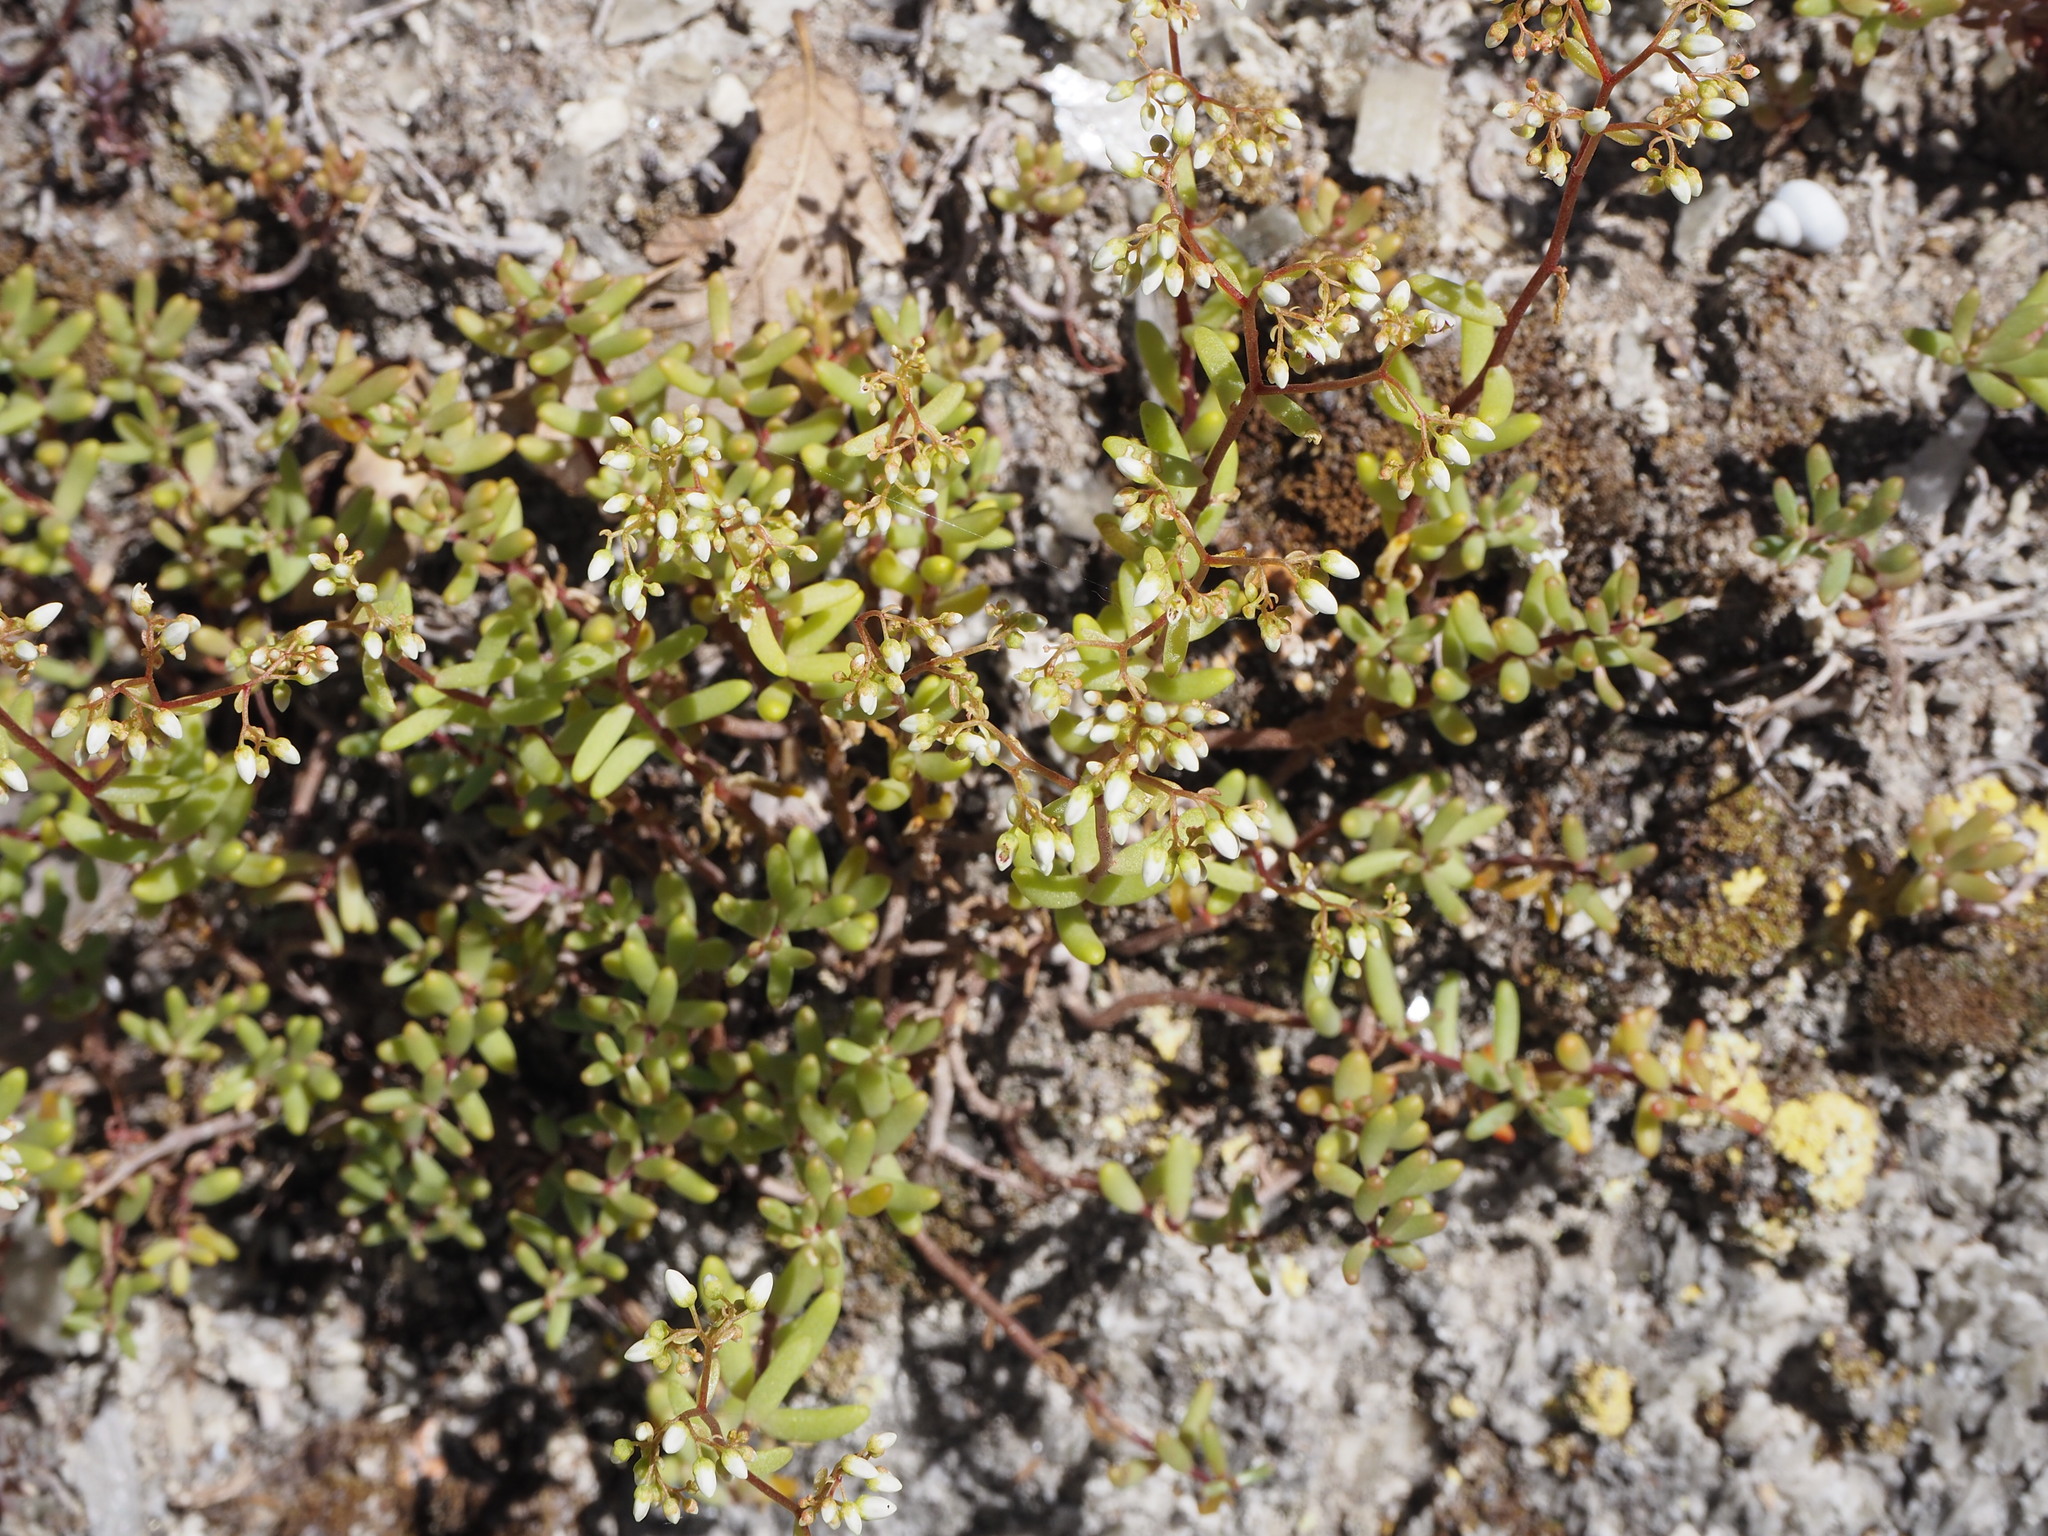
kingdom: Plantae
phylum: Tracheophyta
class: Magnoliopsida
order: Saxifragales
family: Crassulaceae
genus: Sedum
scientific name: Sedum album
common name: White stonecrop
